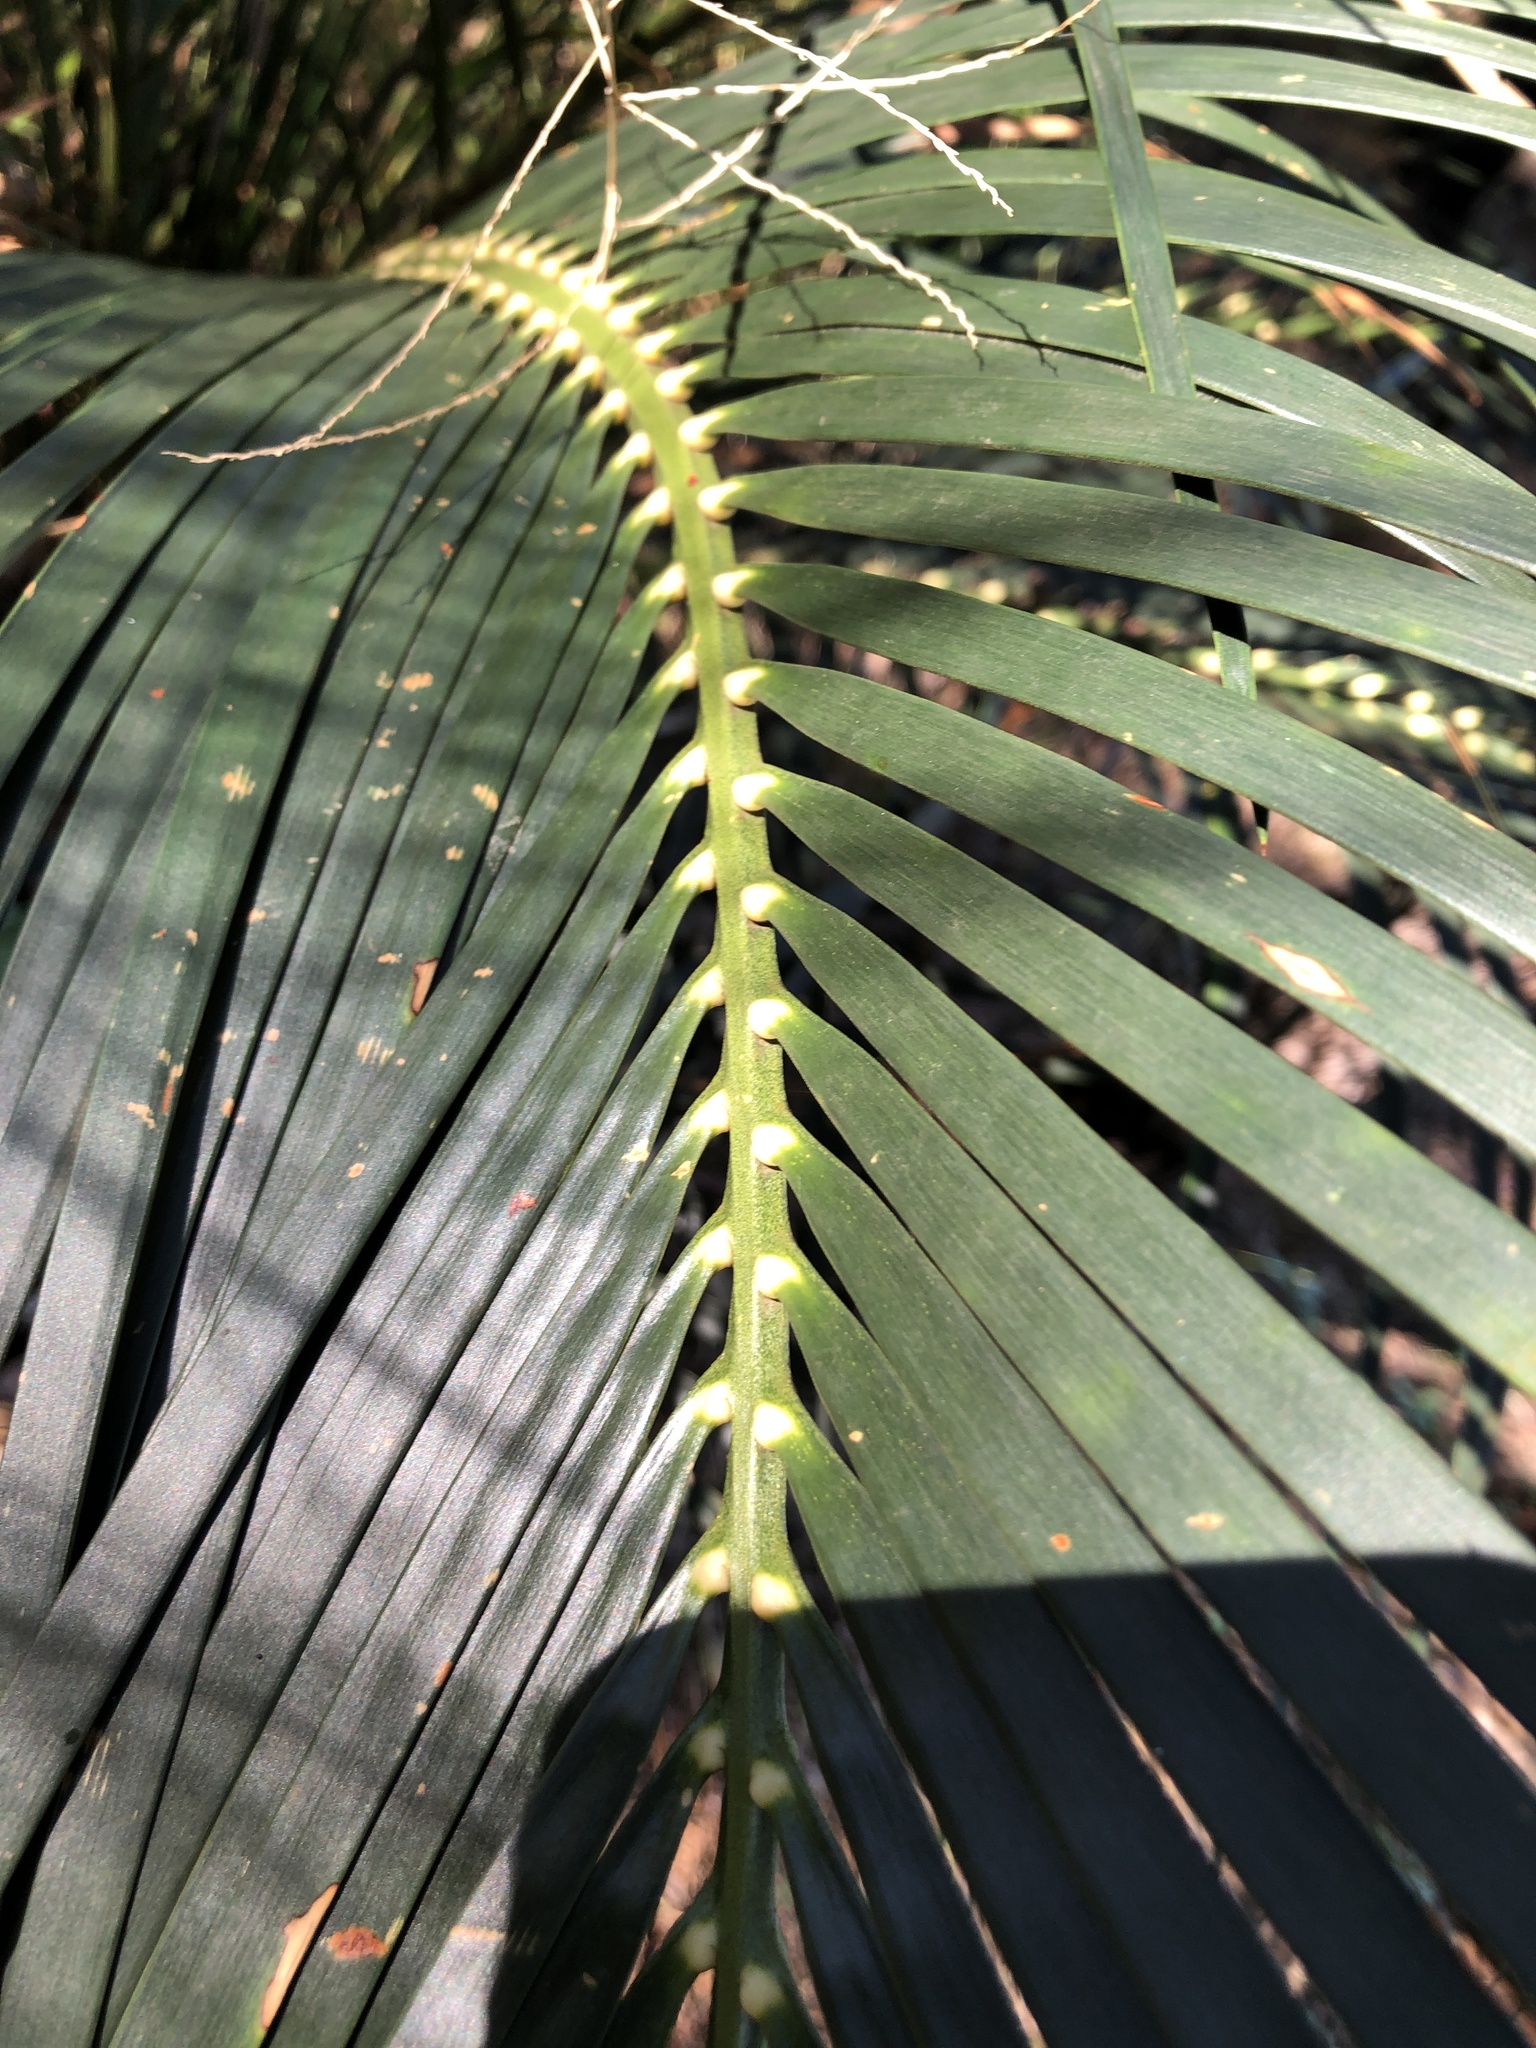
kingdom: Plantae
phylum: Tracheophyta
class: Cycadopsida
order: Cycadales
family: Zamiaceae
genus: Macrozamia
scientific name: Macrozamia miquelii
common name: Wild pineapple
